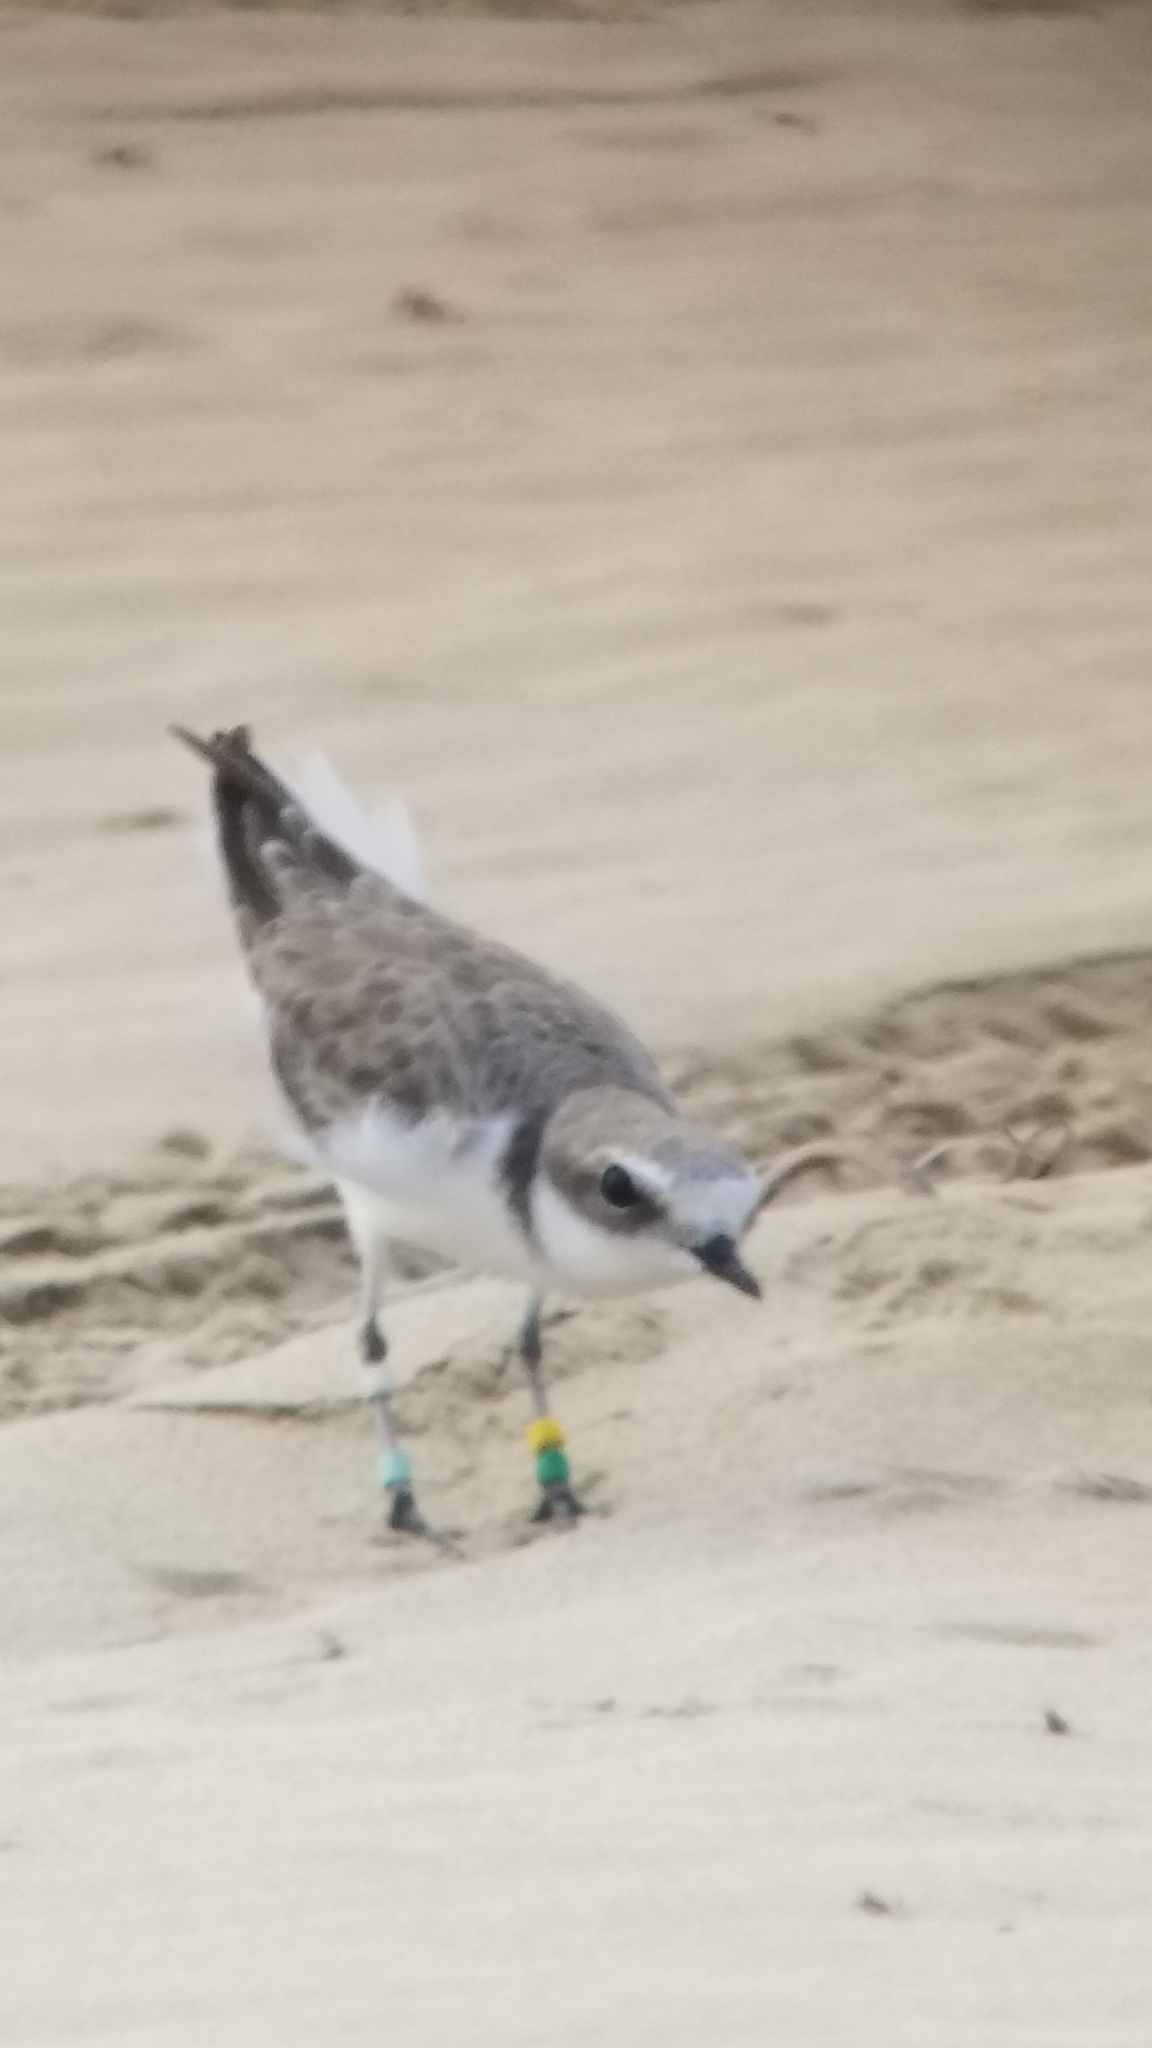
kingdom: Animalia
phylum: Chordata
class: Aves
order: Charadriiformes
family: Charadriidae
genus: Anarhynchus
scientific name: Anarhynchus
